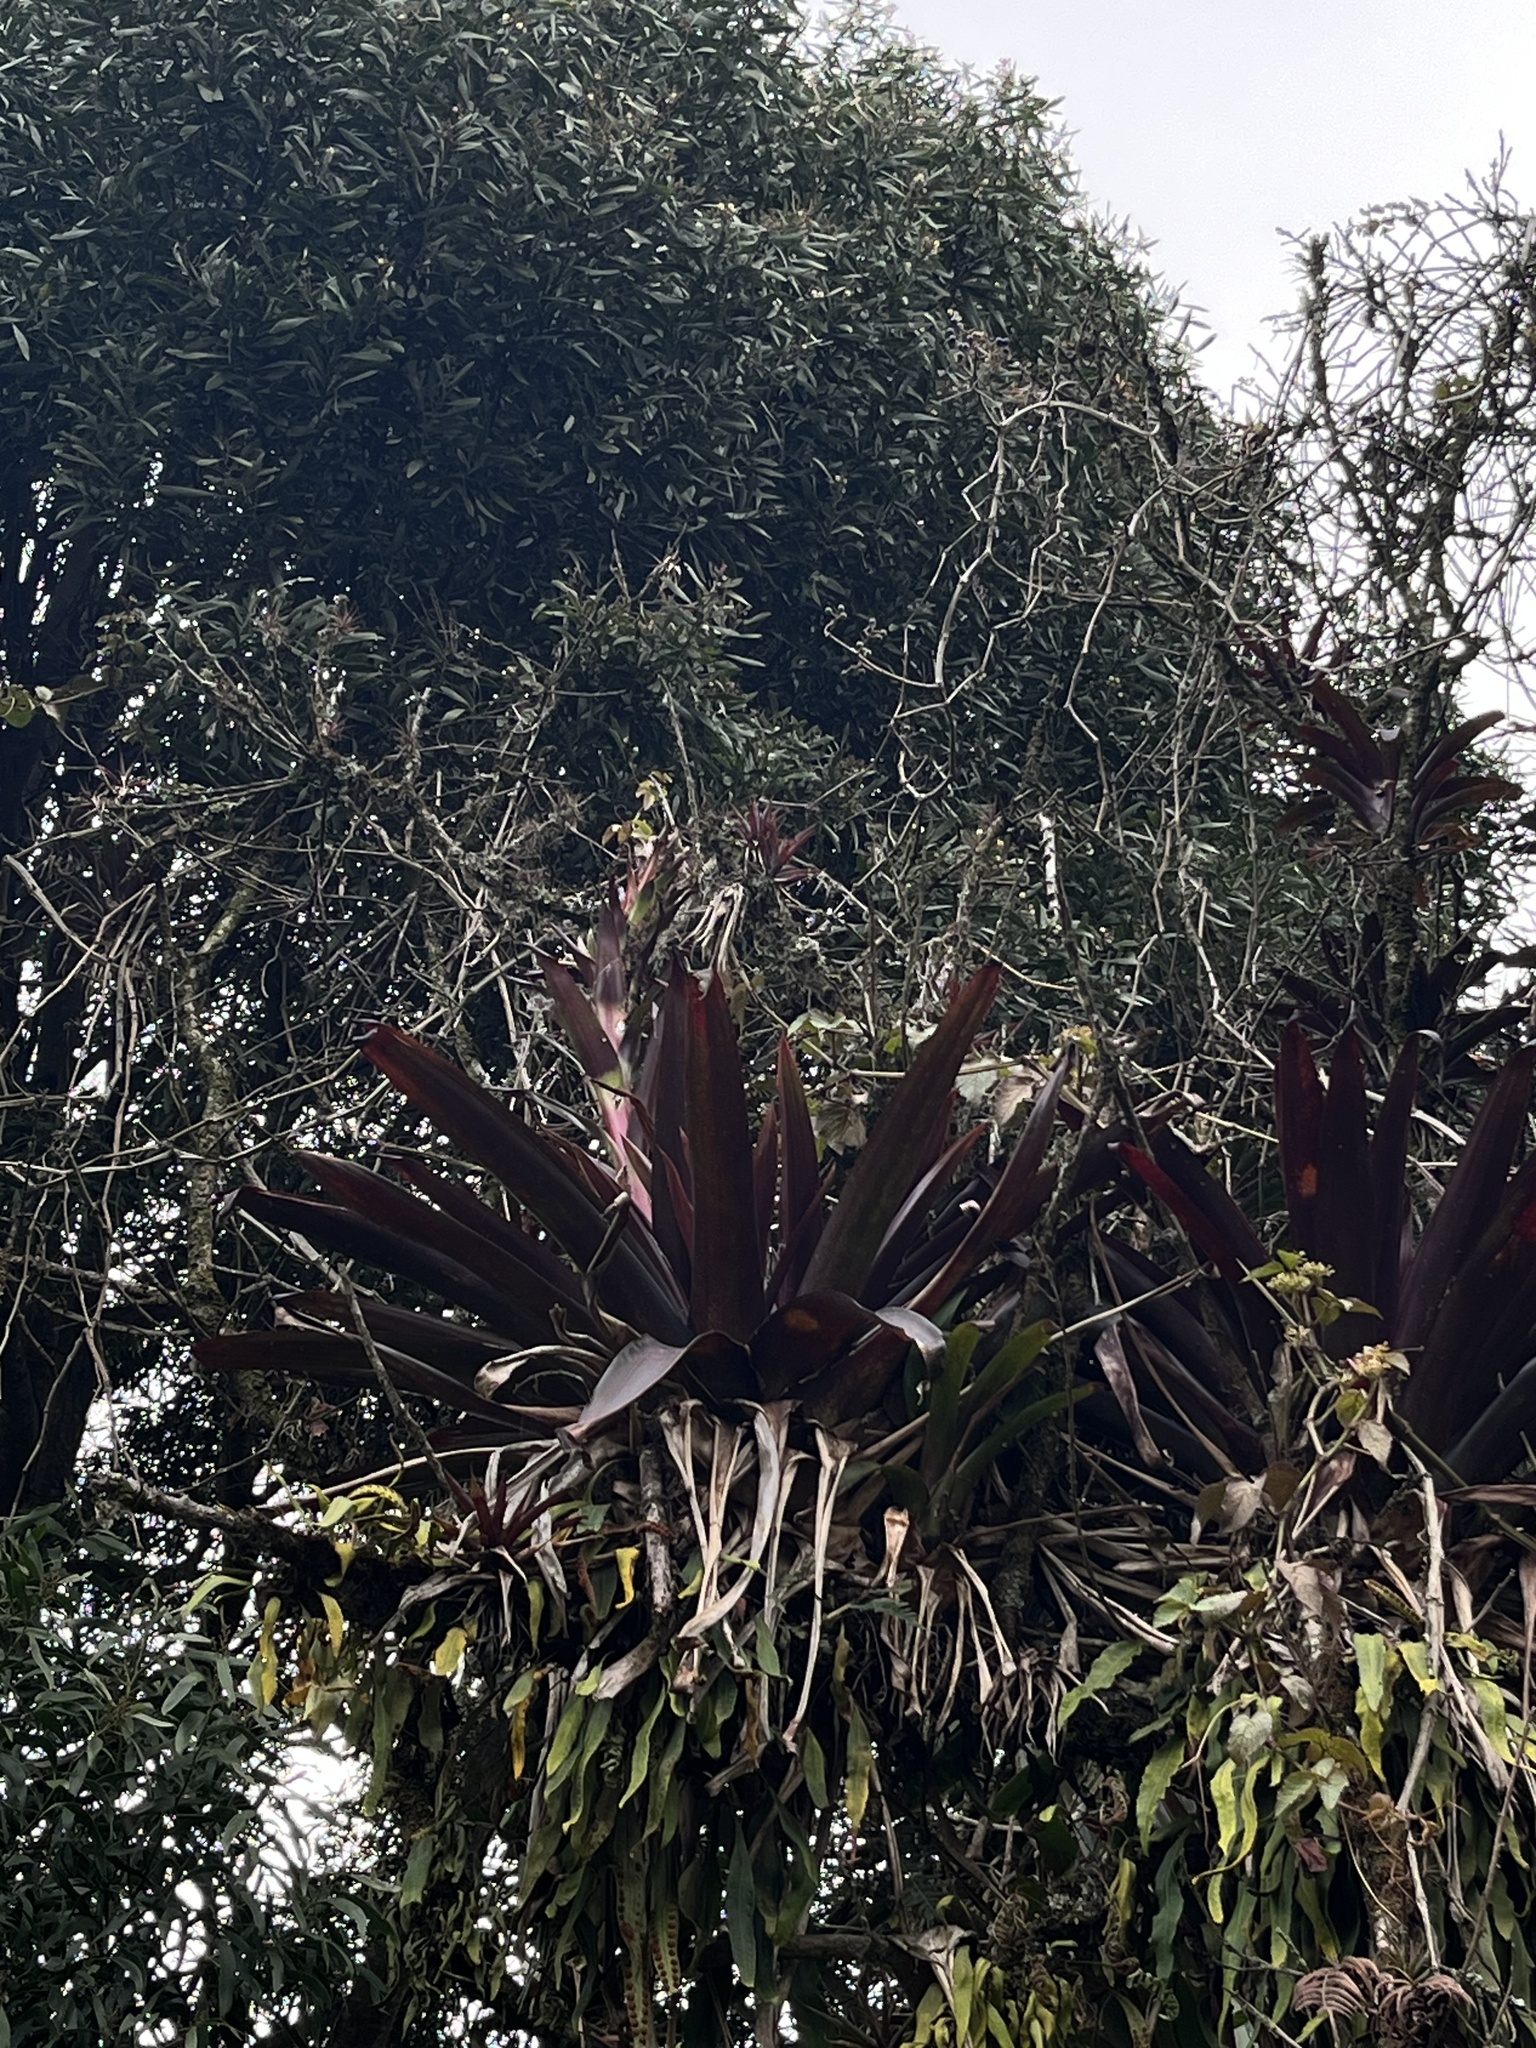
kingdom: Plantae
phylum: Tracheophyta
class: Liliopsida
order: Poales
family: Bromeliaceae
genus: Tillandsia
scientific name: Tillandsia pastensis
